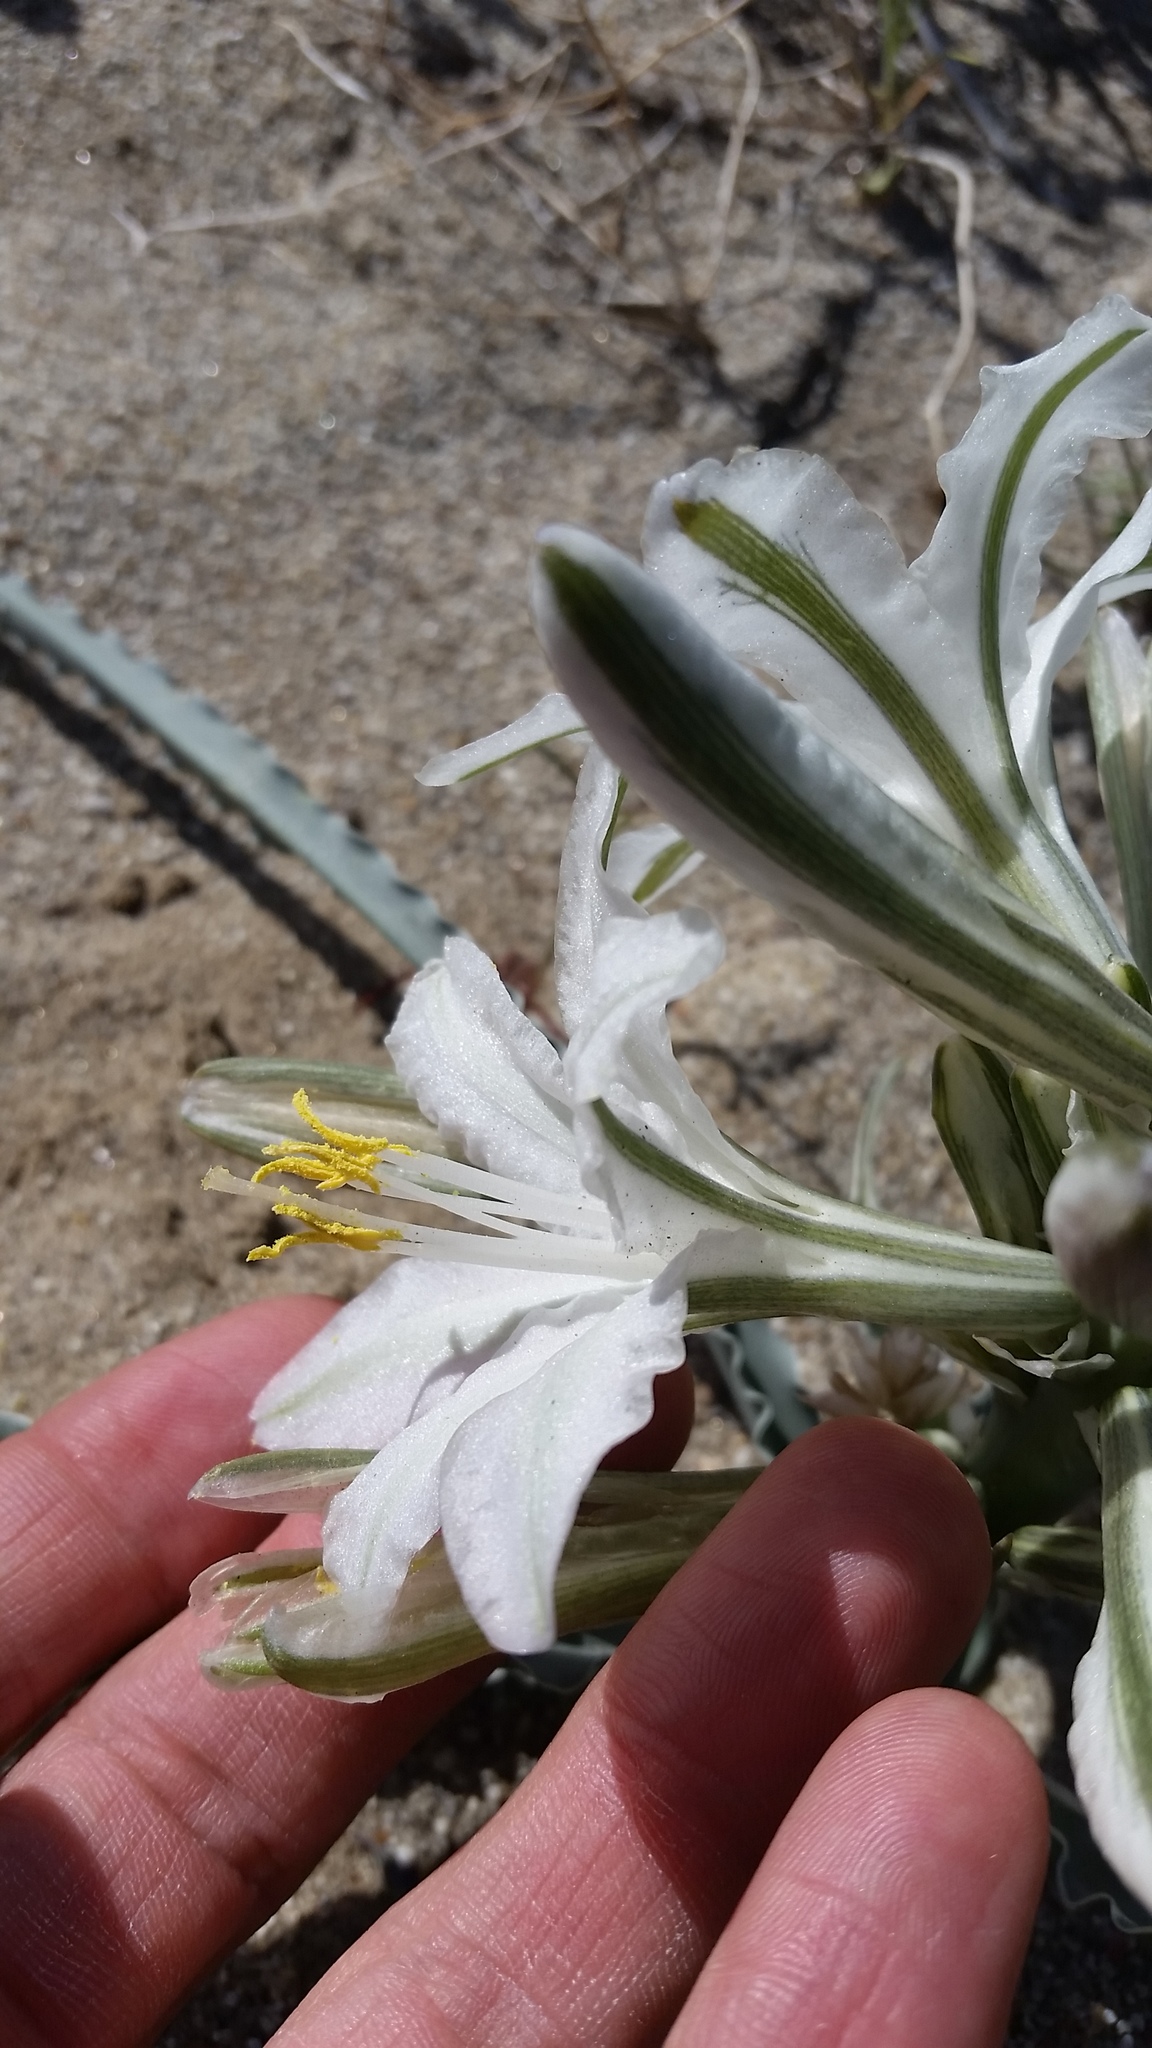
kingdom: Plantae
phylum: Tracheophyta
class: Liliopsida
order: Asparagales
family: Asparagaceae
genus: Hesperocallis
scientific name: Hesperocallis undulata
